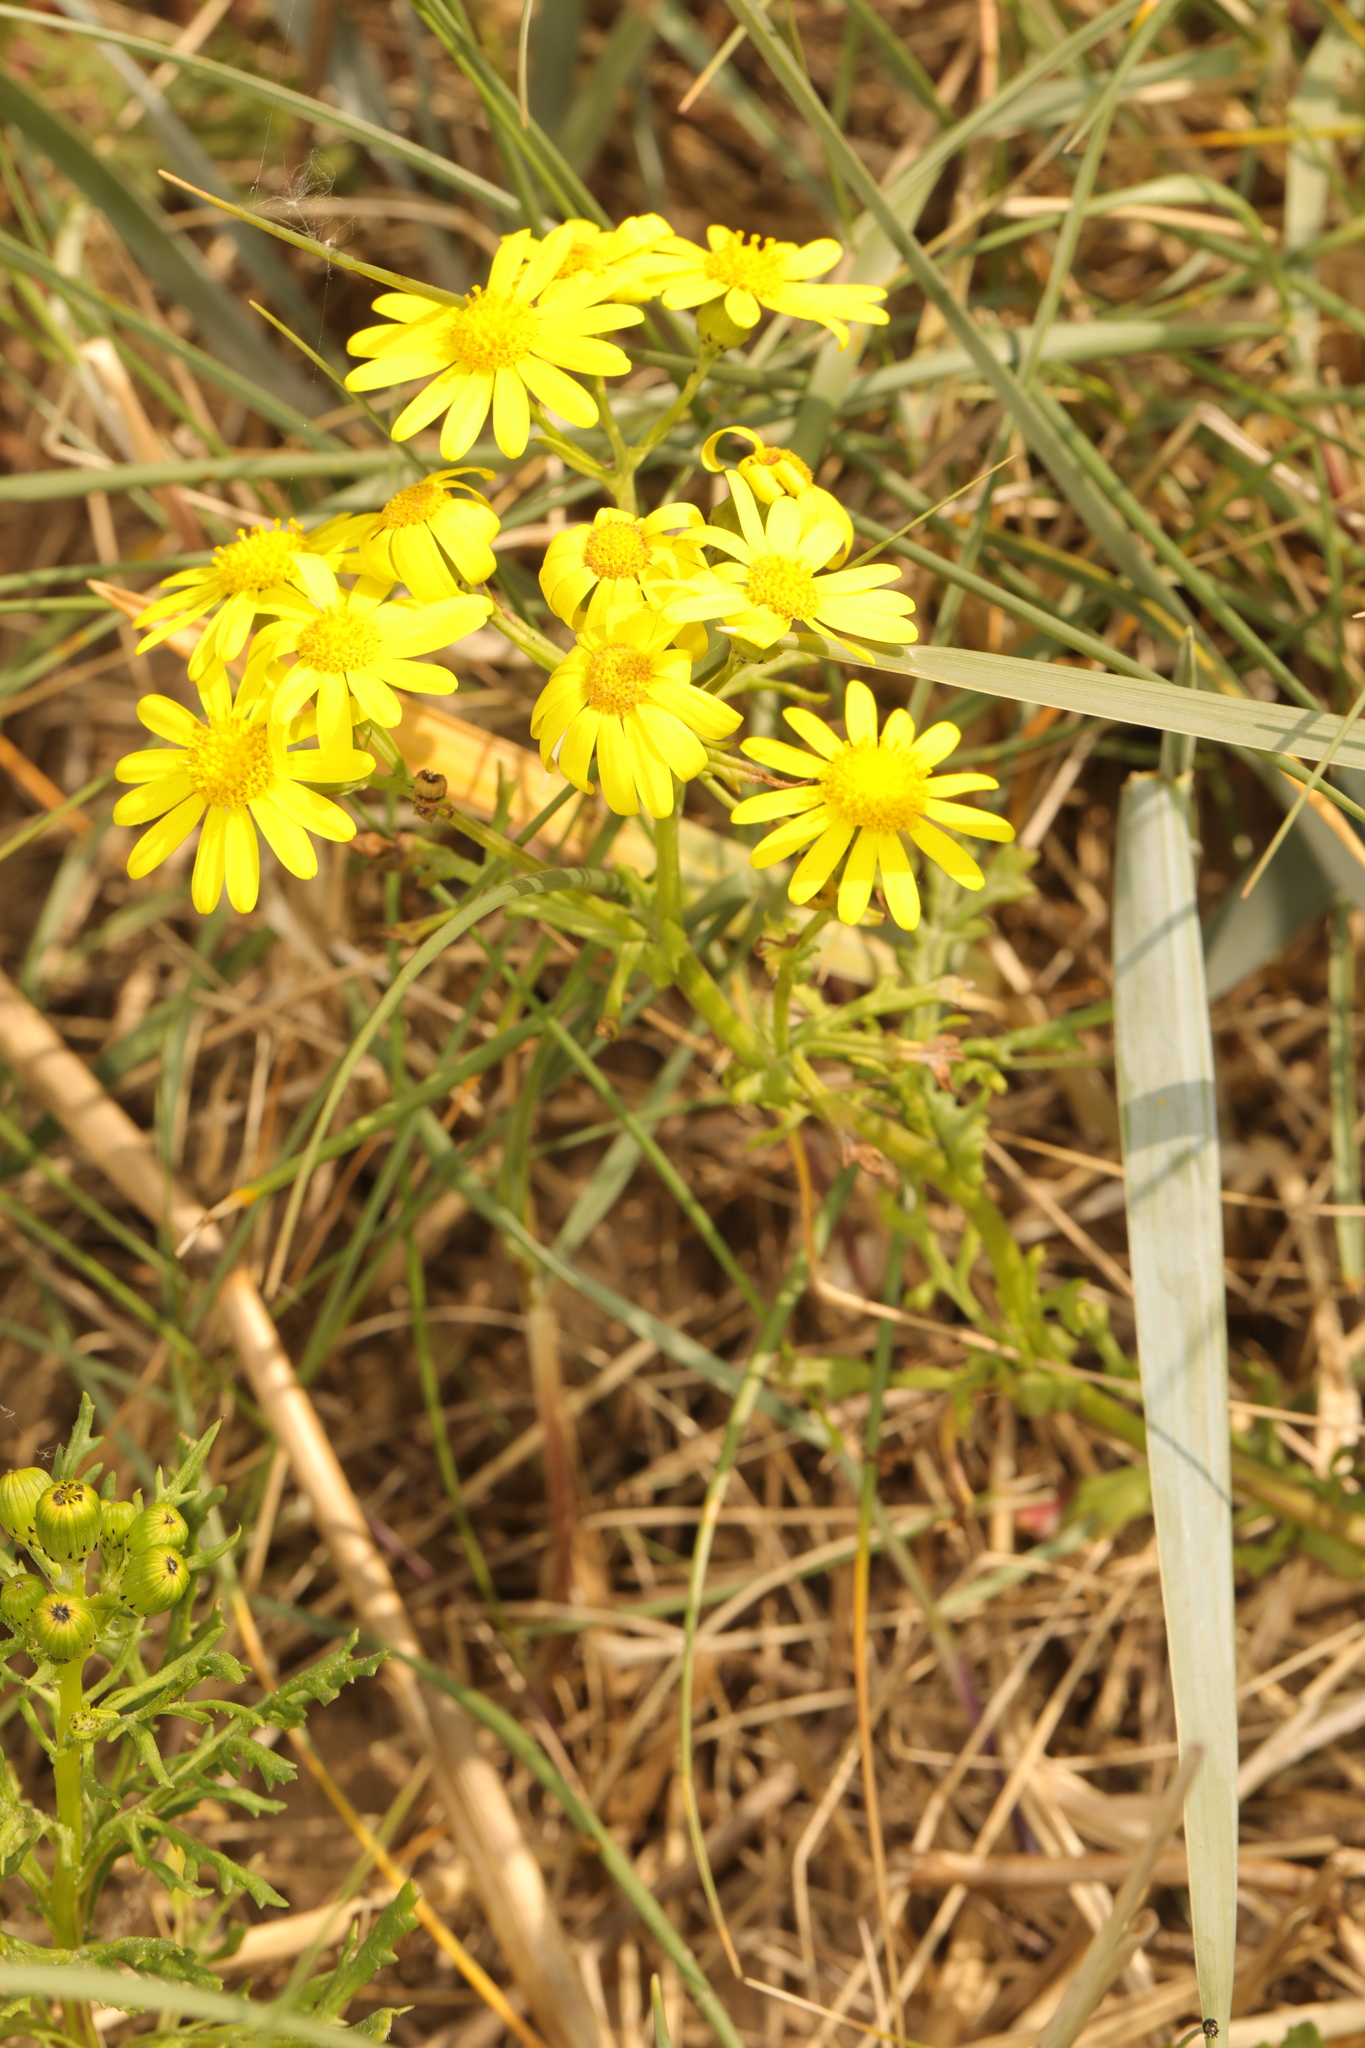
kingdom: Plantae
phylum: Tracheophyta
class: Magnoliopsida
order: Asterales
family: Asteraceae
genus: Senecio
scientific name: Senecio squalidus
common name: Oxford ragwort
